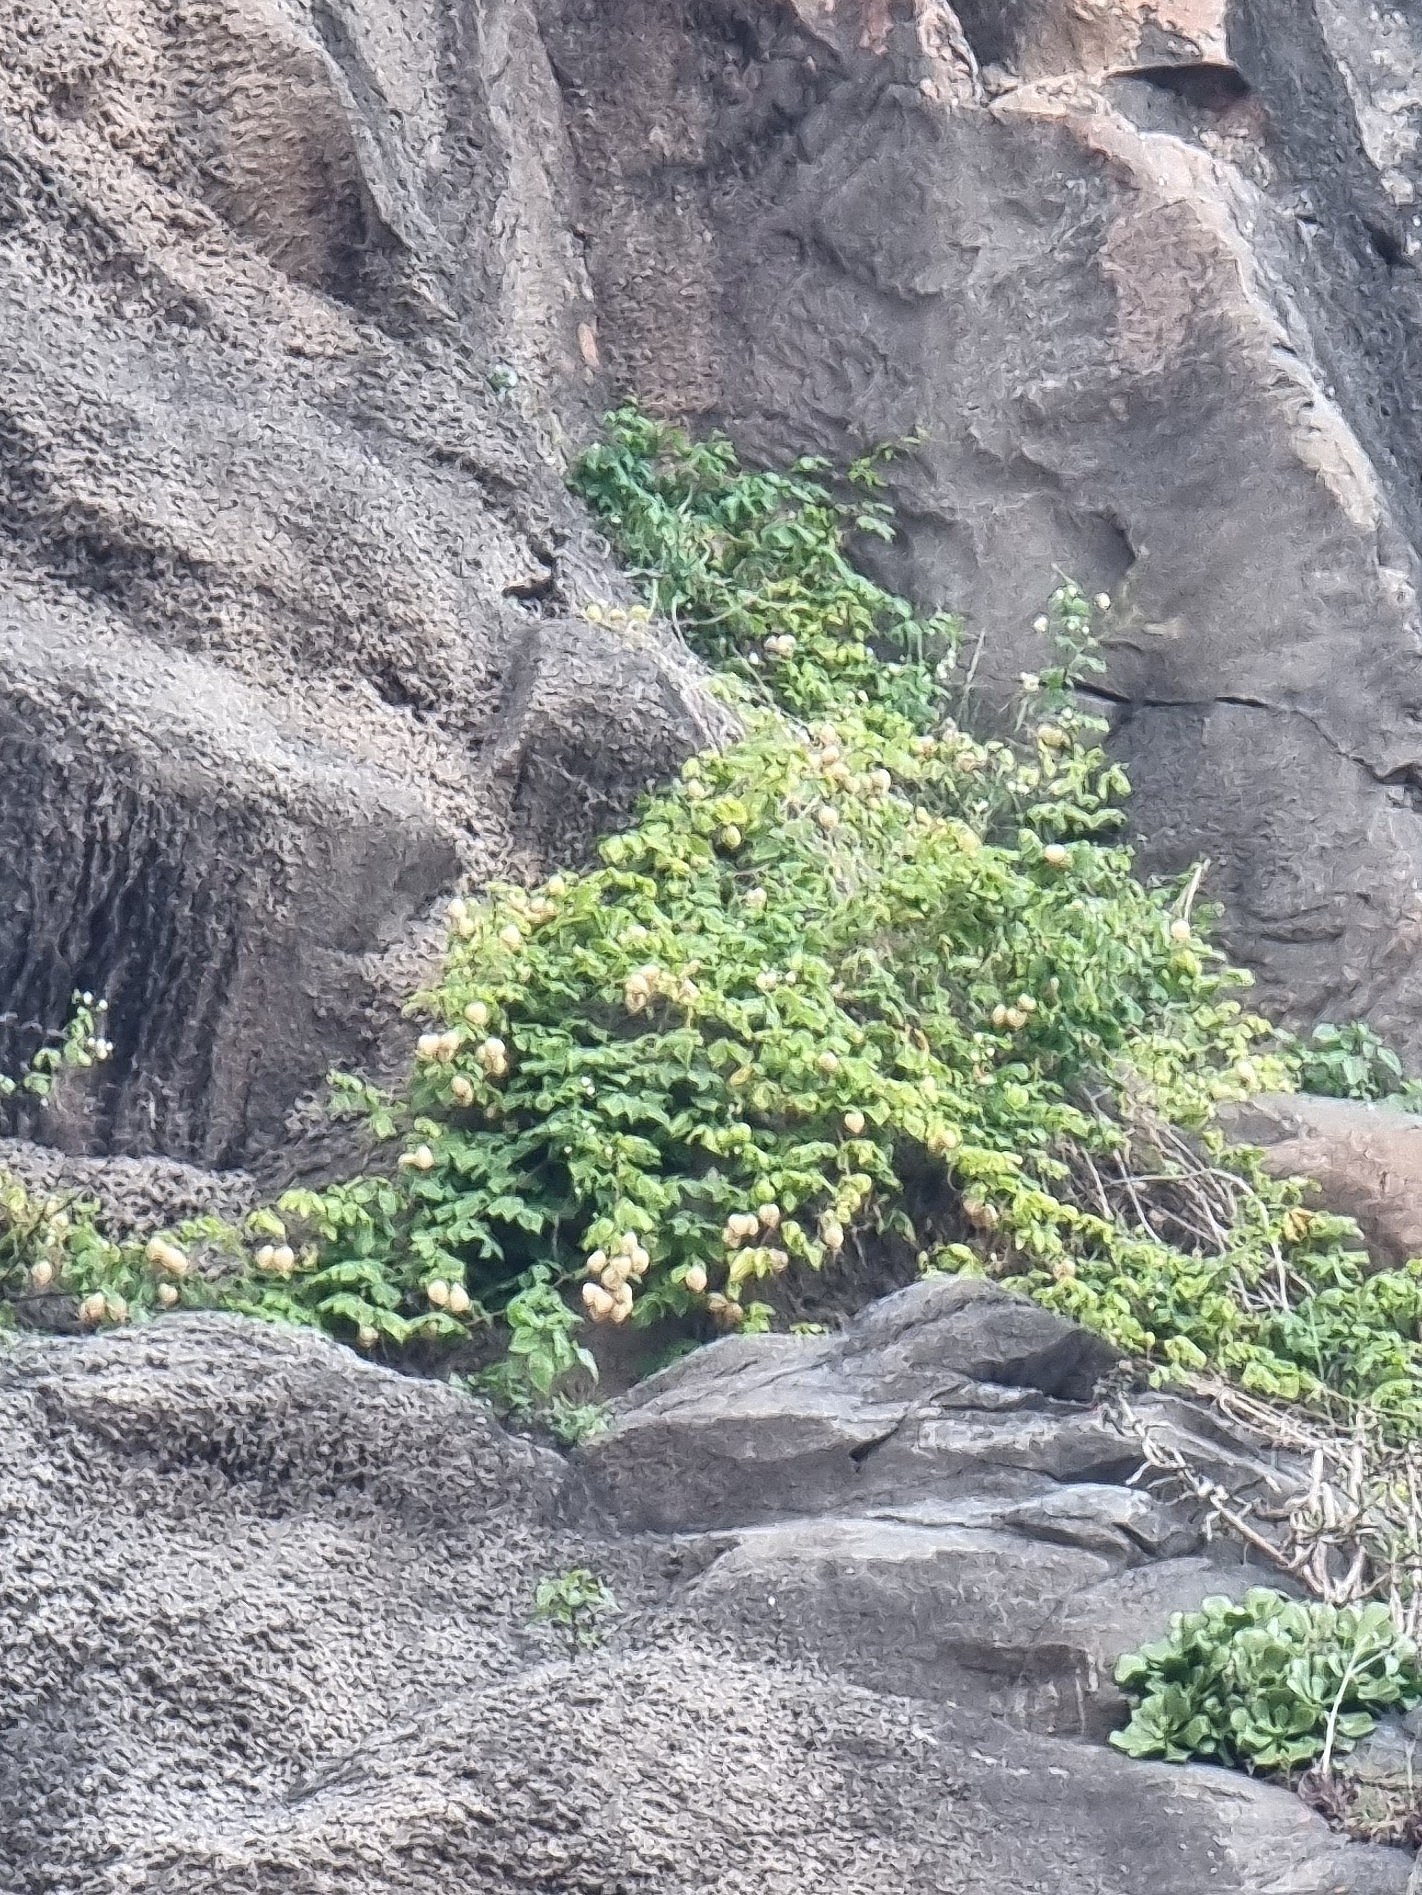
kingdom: Plantae
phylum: Tracheophyta
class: Magnoliopsida
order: Sapindales
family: Sapindaceae
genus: Cardiospermum
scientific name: Cardiospermum grandiflorum
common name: Balloon vine
